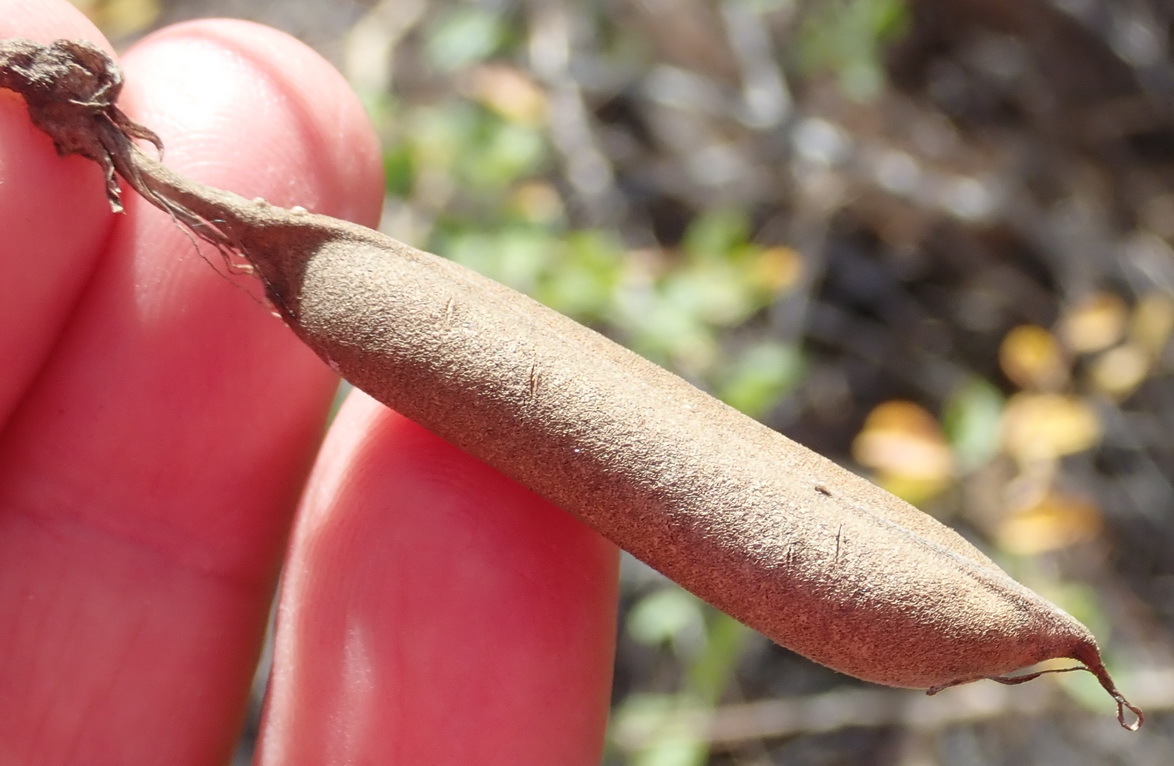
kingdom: Plantae
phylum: Tracheophyta
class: Magnoliopsida
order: Fabales
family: Fabaceae
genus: Crotalaria
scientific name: Crotalaria capensis
